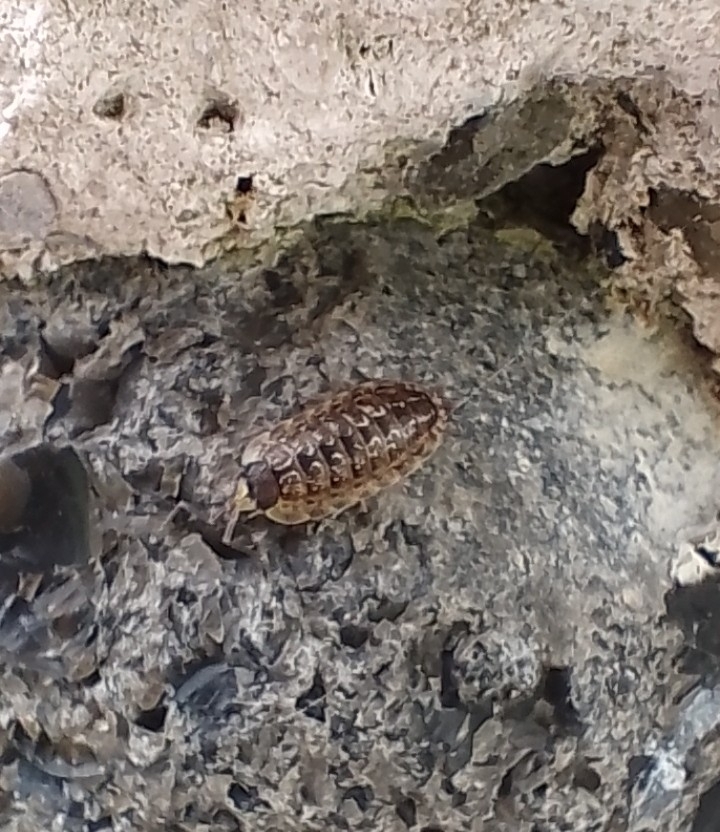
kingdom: Animalia
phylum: Arthropoda
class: Malacostraca
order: Isopoda
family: Porcellionidae
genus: Porcellio
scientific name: Porcellio spinicornis
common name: Painted woodlouse
